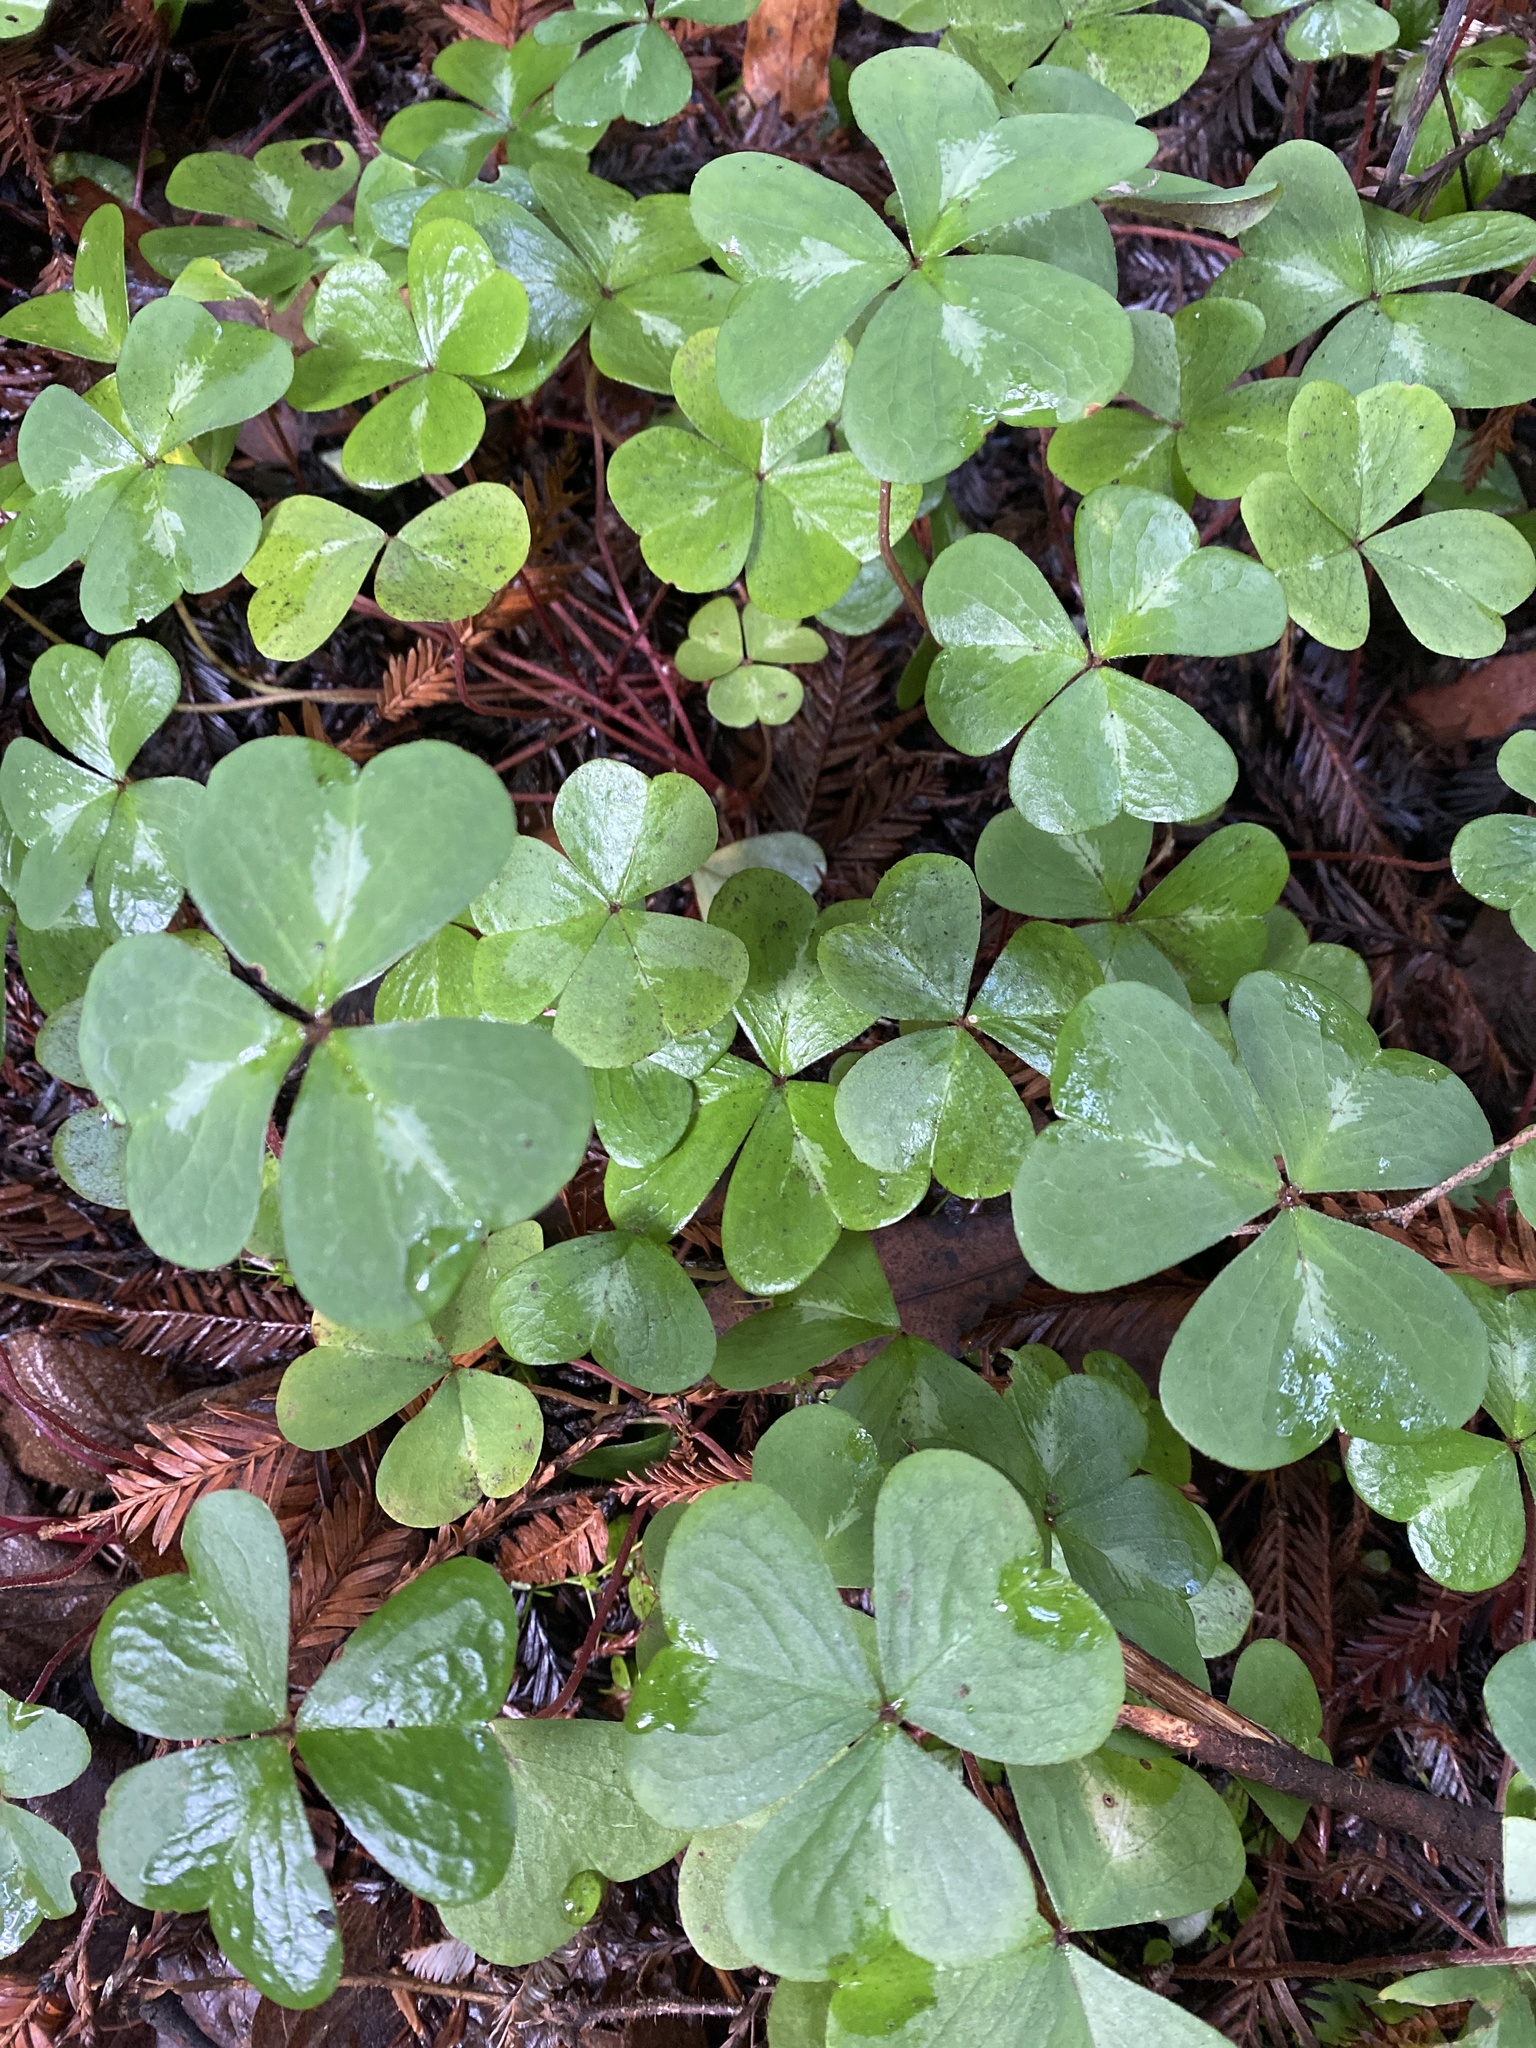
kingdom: Plantae
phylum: Tracheophyta
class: Magnoliopsida
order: Oxalidales
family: Oxalidaceae
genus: Oxalis
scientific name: Oxalis oregana
